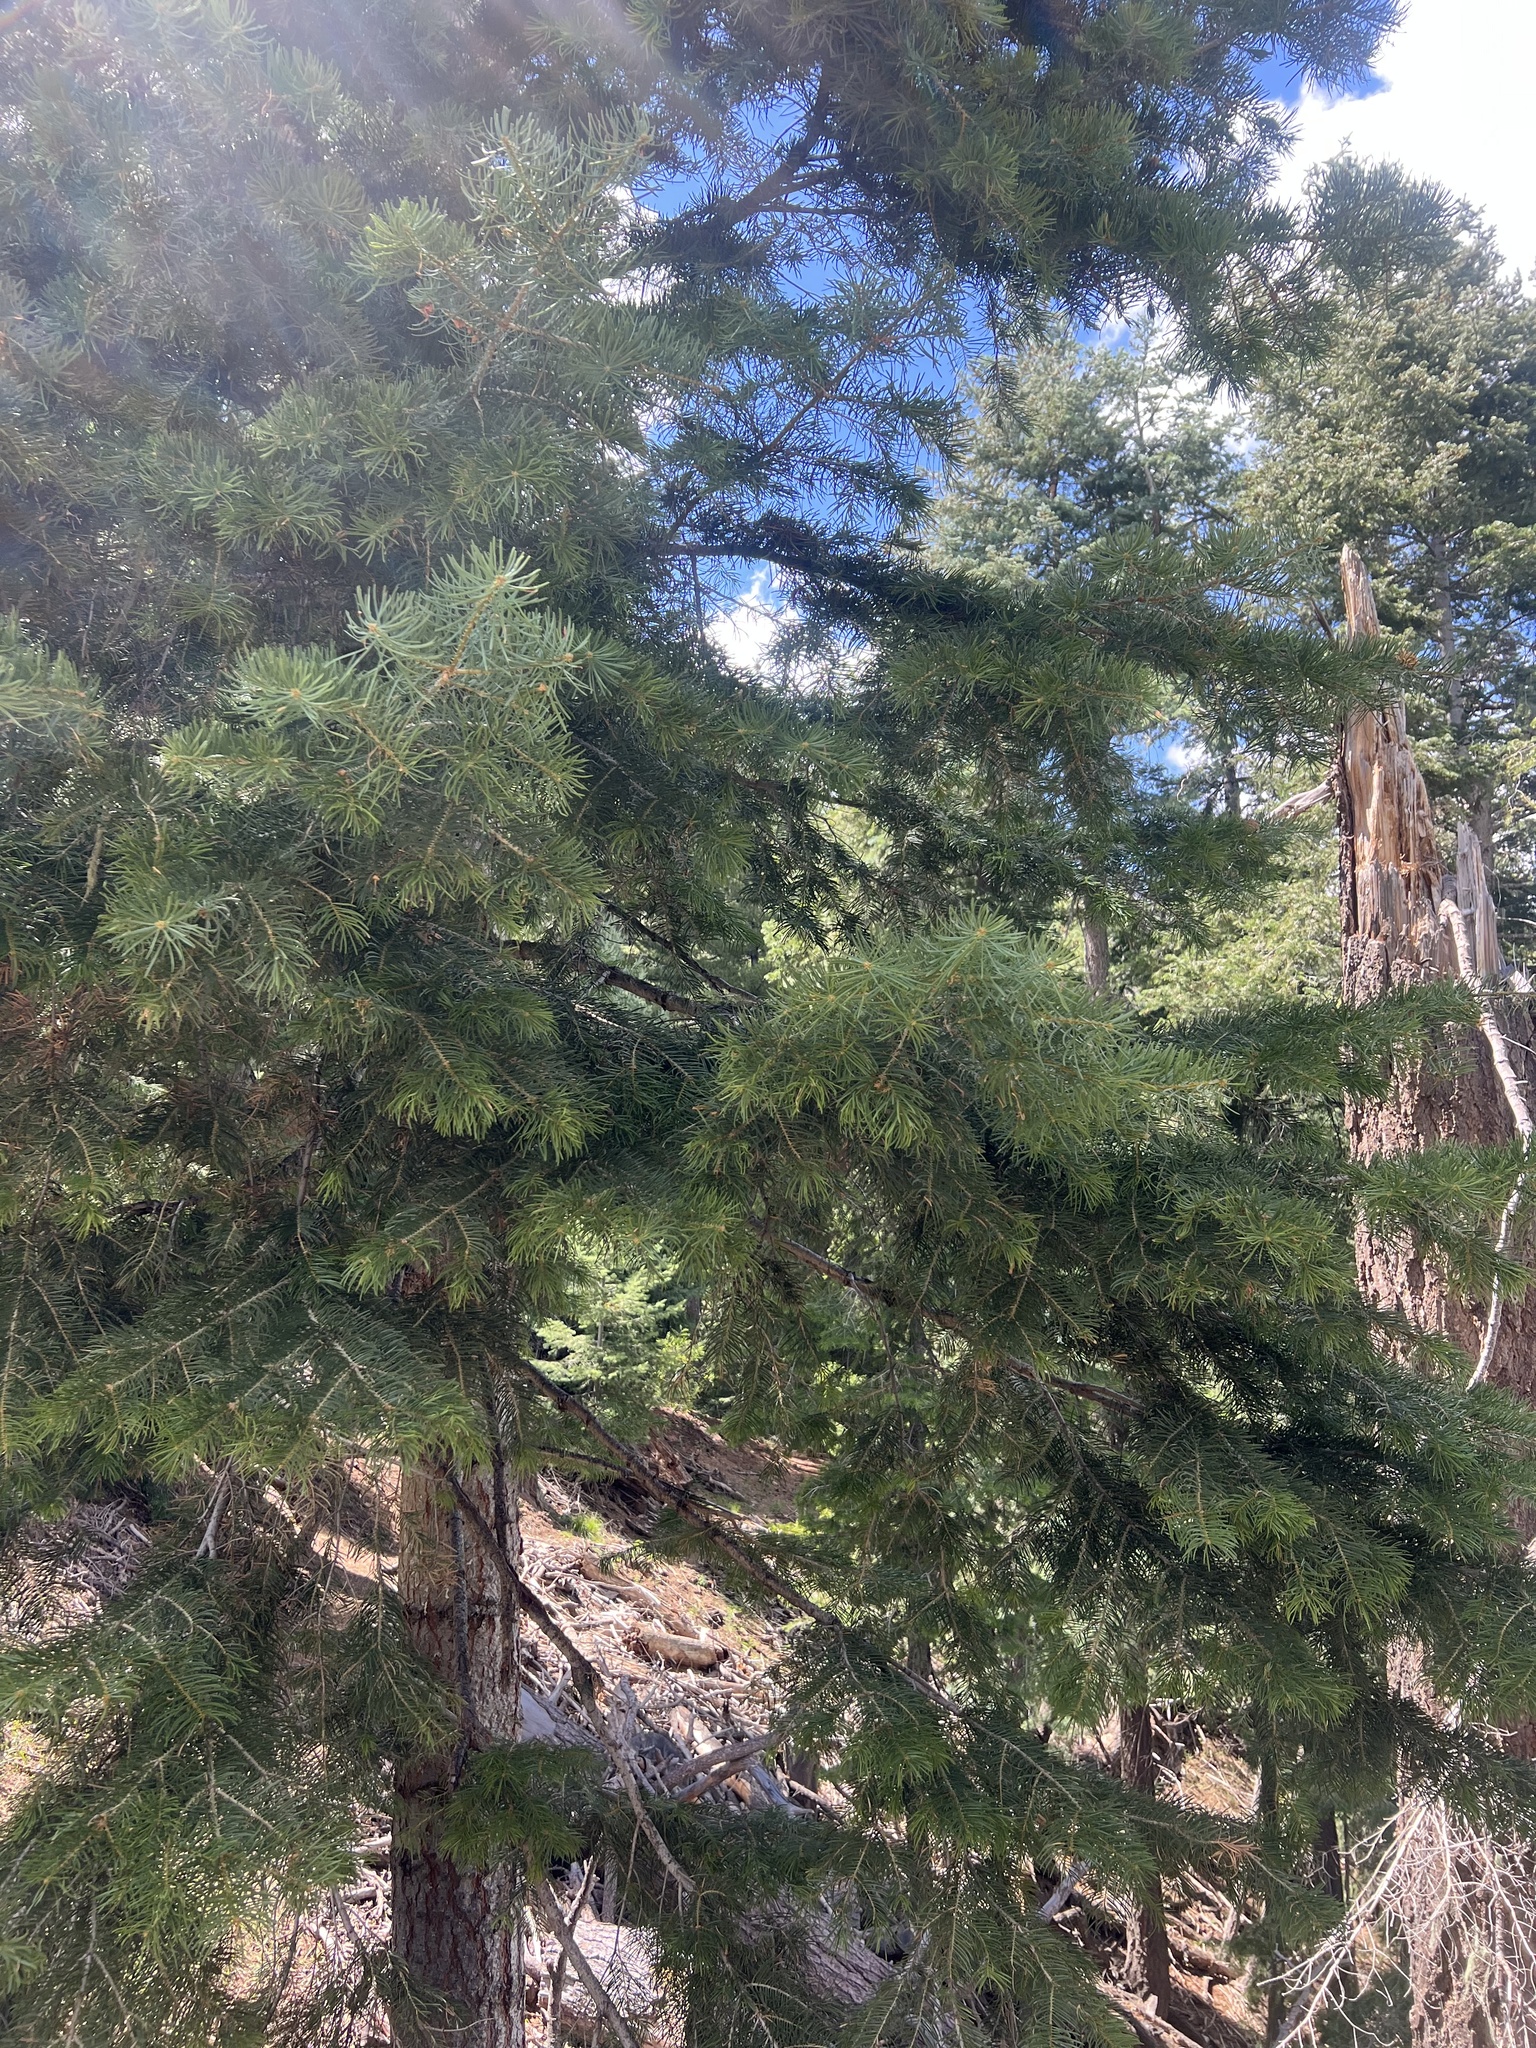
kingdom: Plantae
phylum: Tracheophyta
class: Pinopsida
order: Pinales
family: Pinaceae
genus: Abies
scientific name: Abies concolor
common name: Colorado fir
